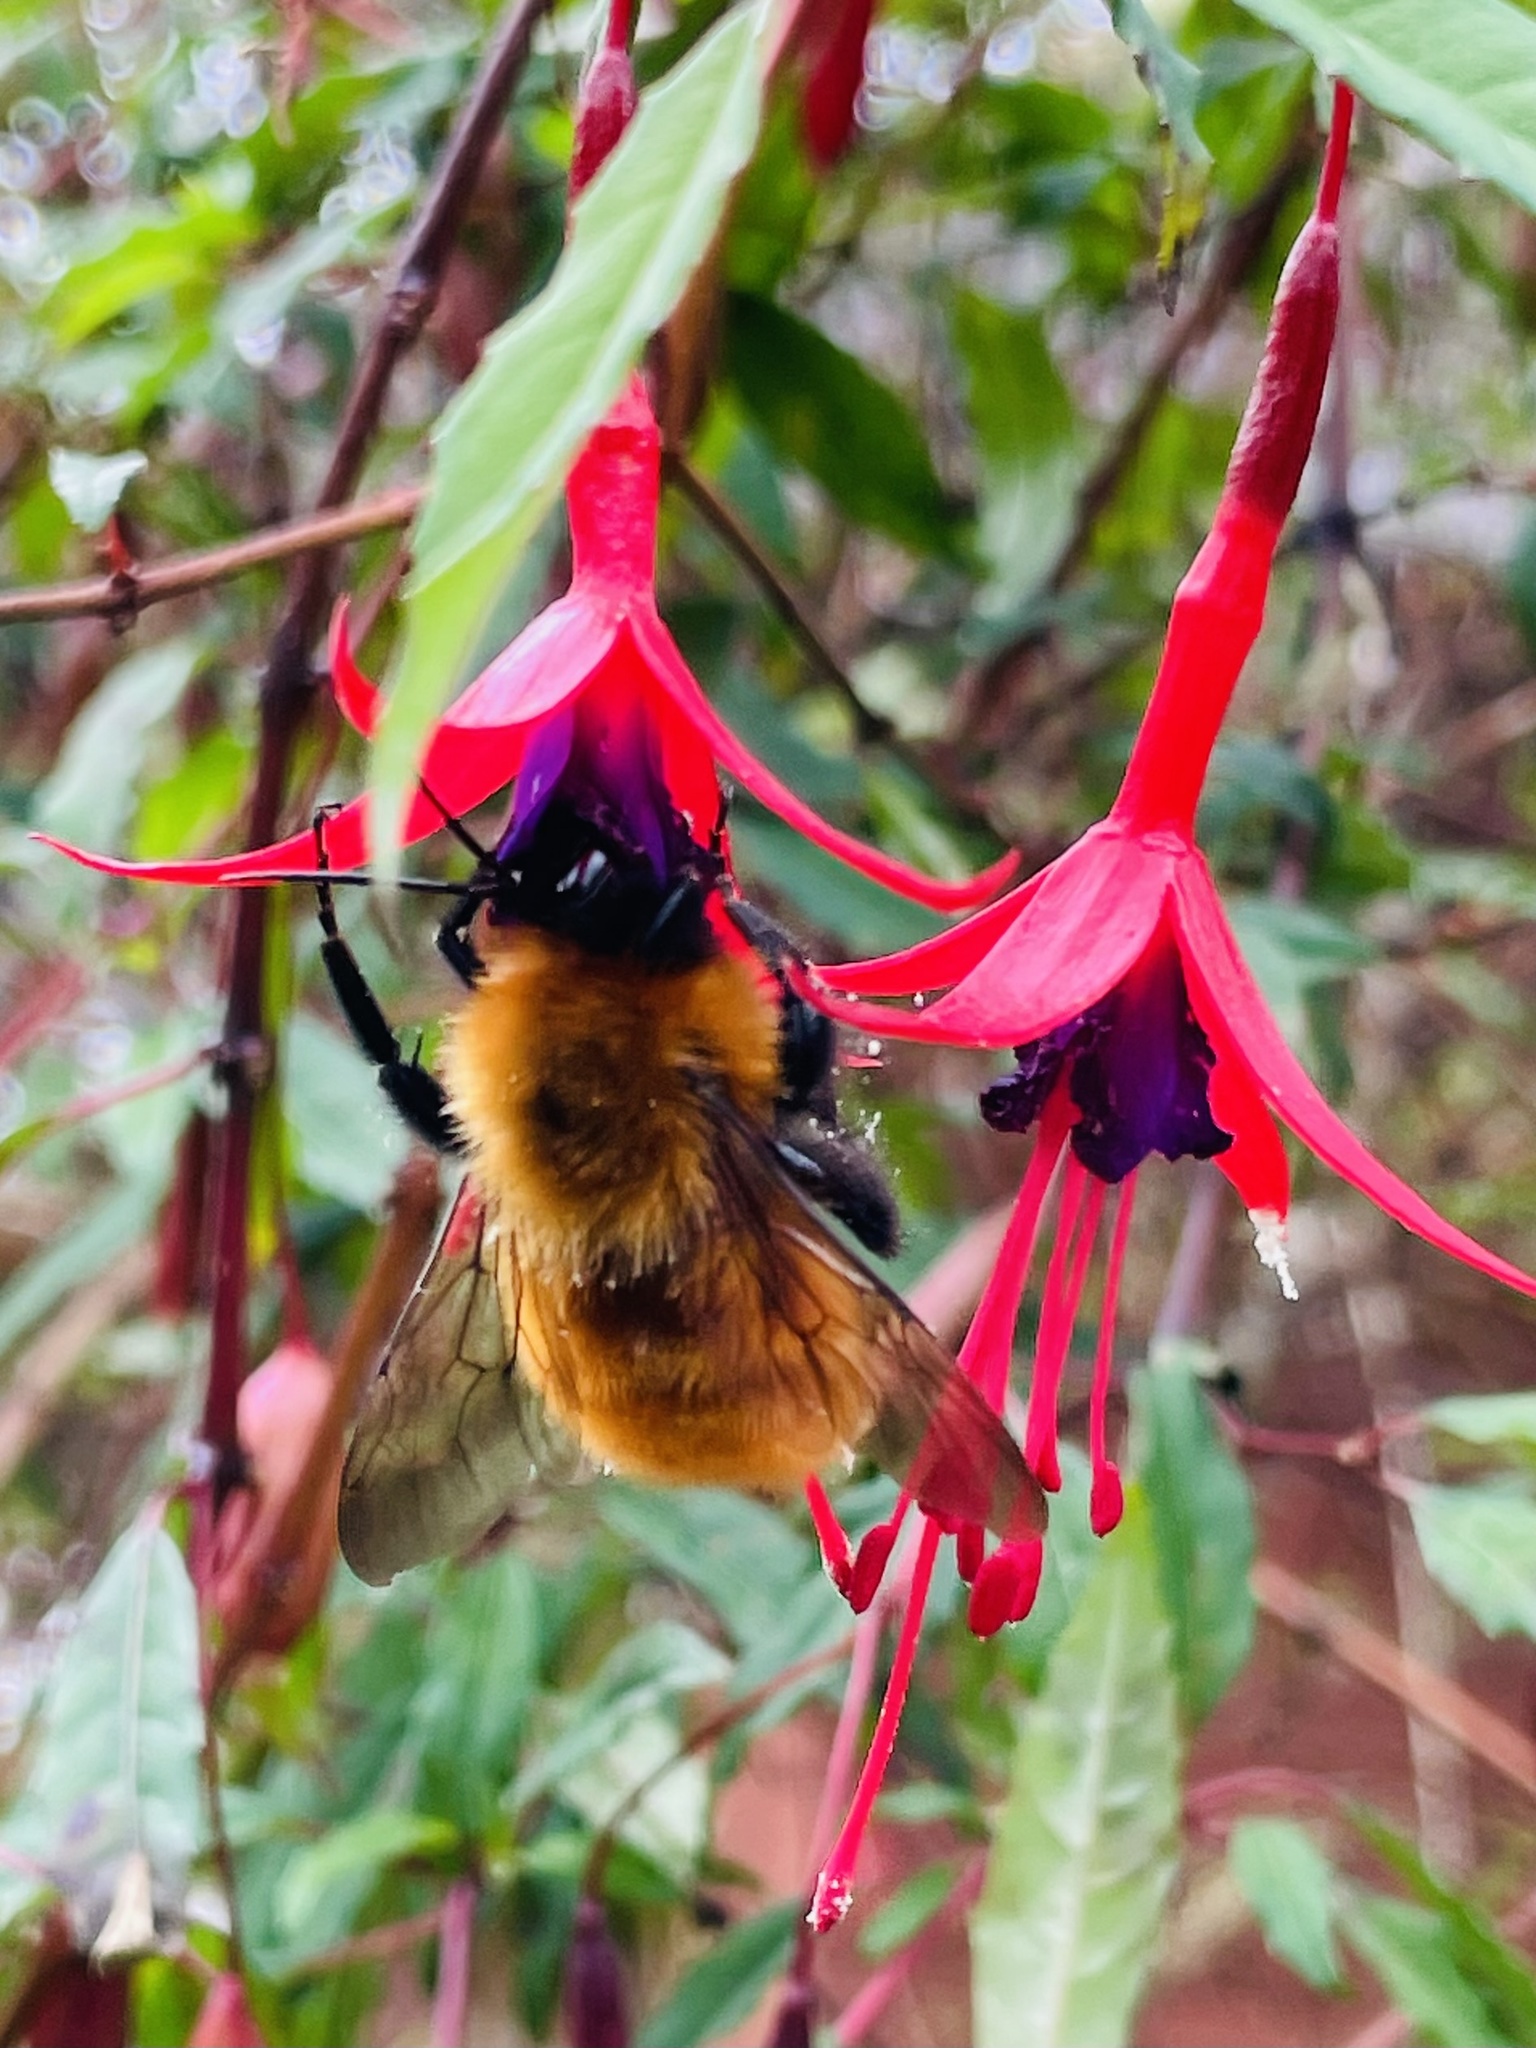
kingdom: Animalia
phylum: Arthropoda
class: Insecta
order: Hymenoptera
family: Apidae
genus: Bombus
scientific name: Bombus dahlbomii
